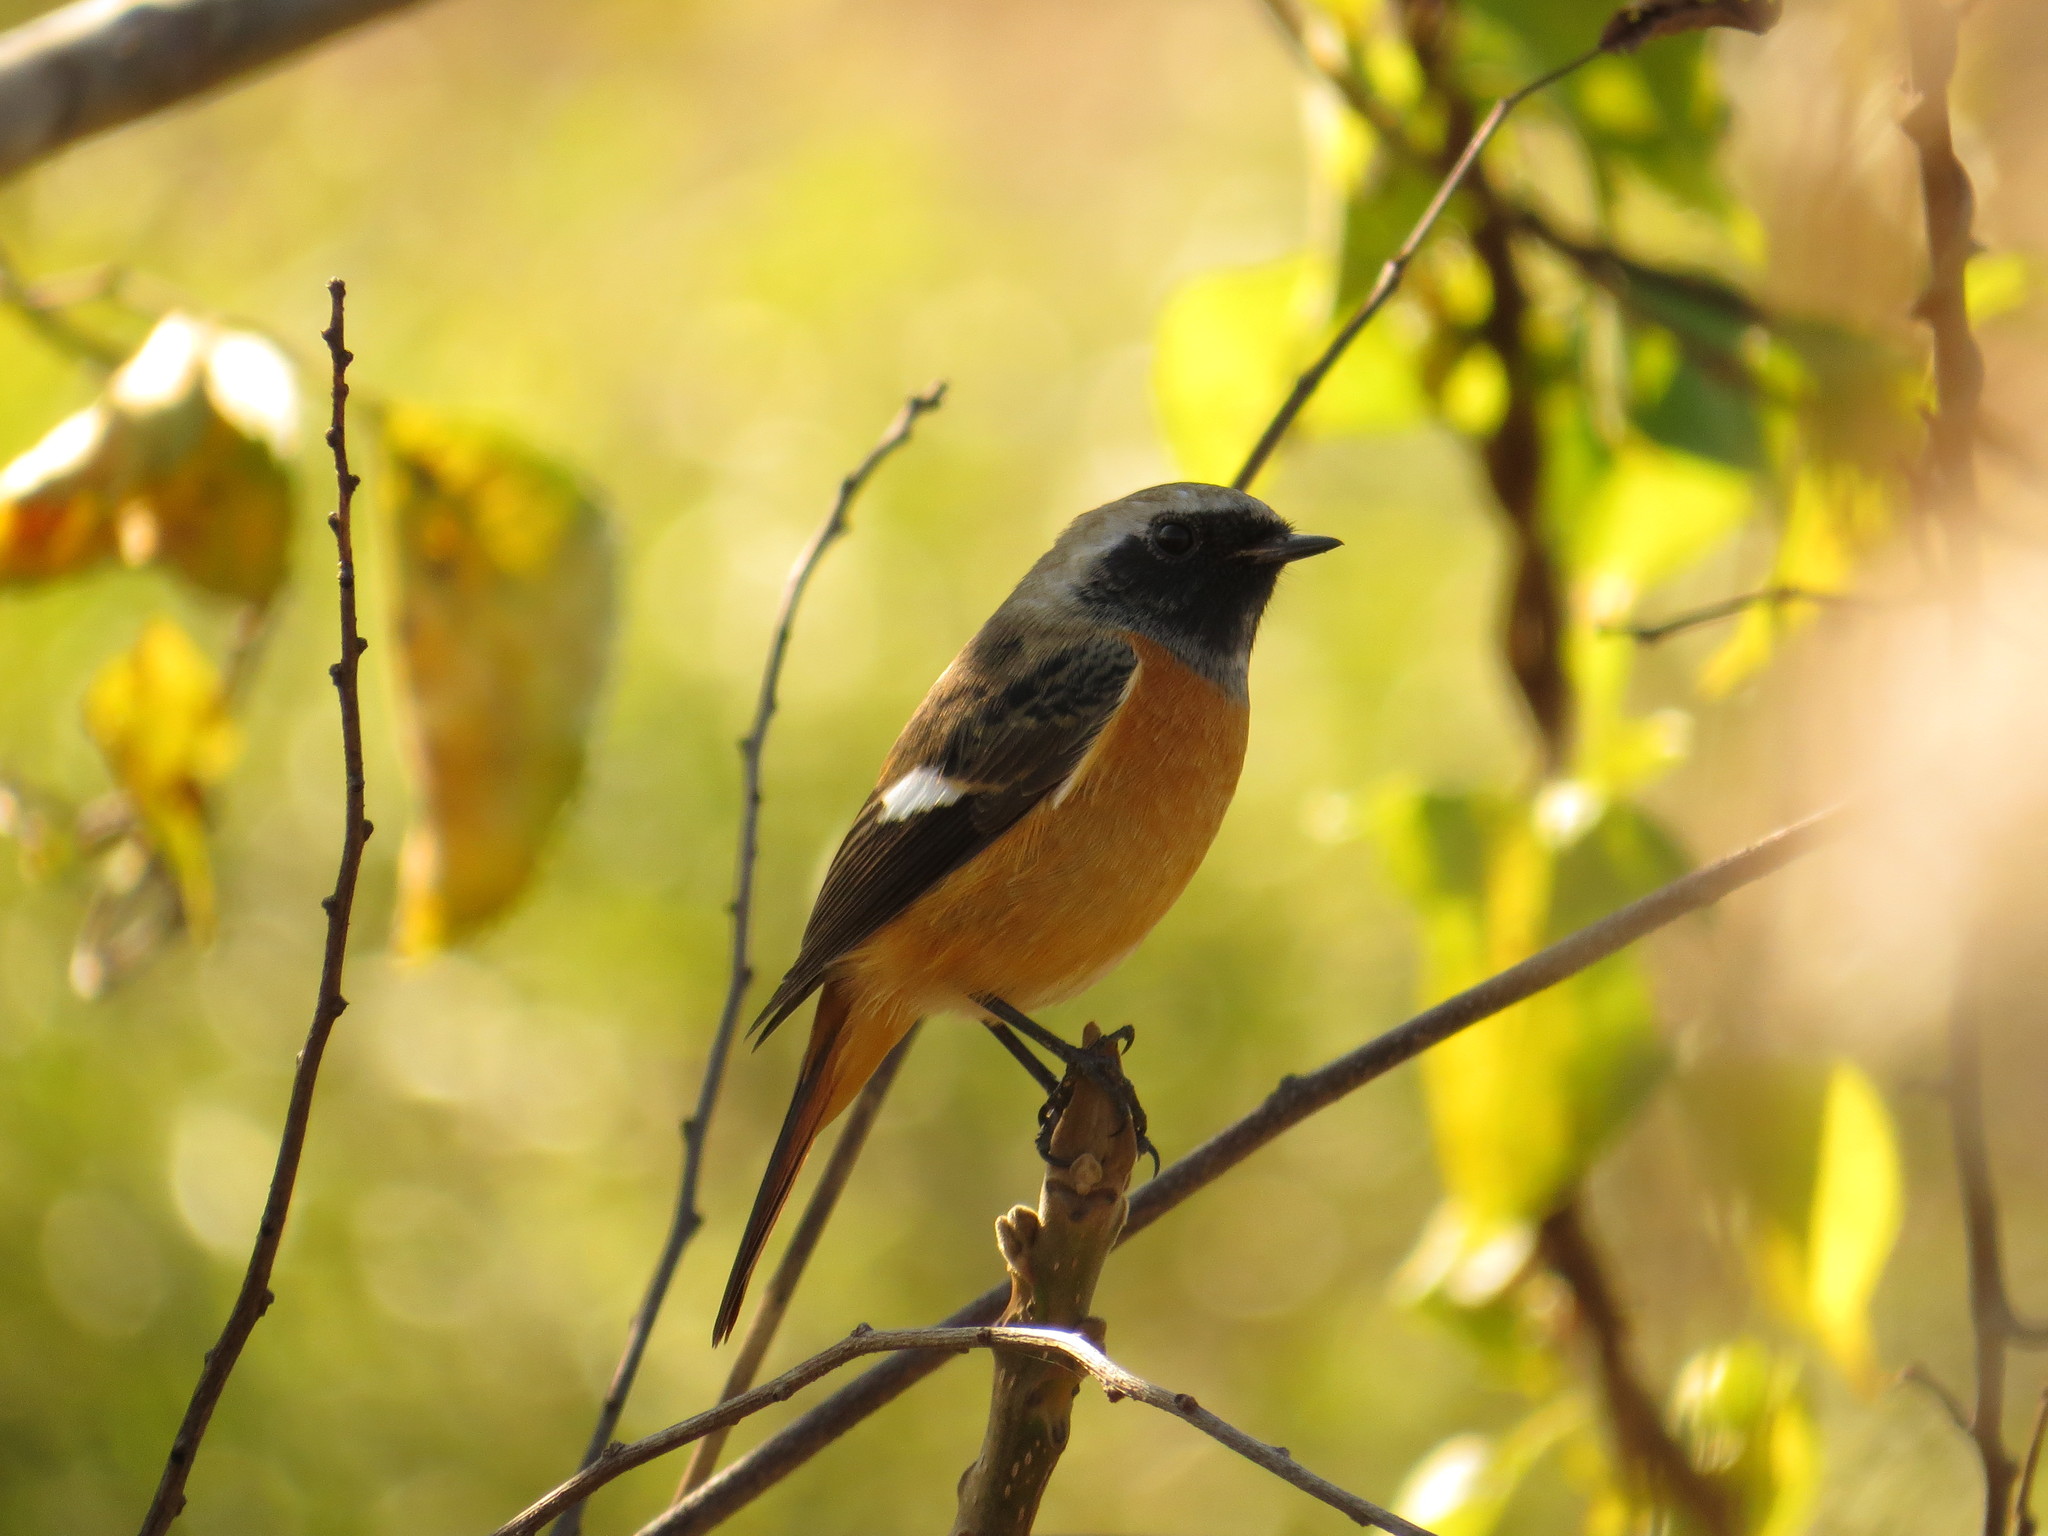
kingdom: Animalia
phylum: Chordata
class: Aves
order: Passeriformes
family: Muscicapidae
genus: Phoenicurus
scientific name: Phoenicurus auroreus
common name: Daurian redstart
